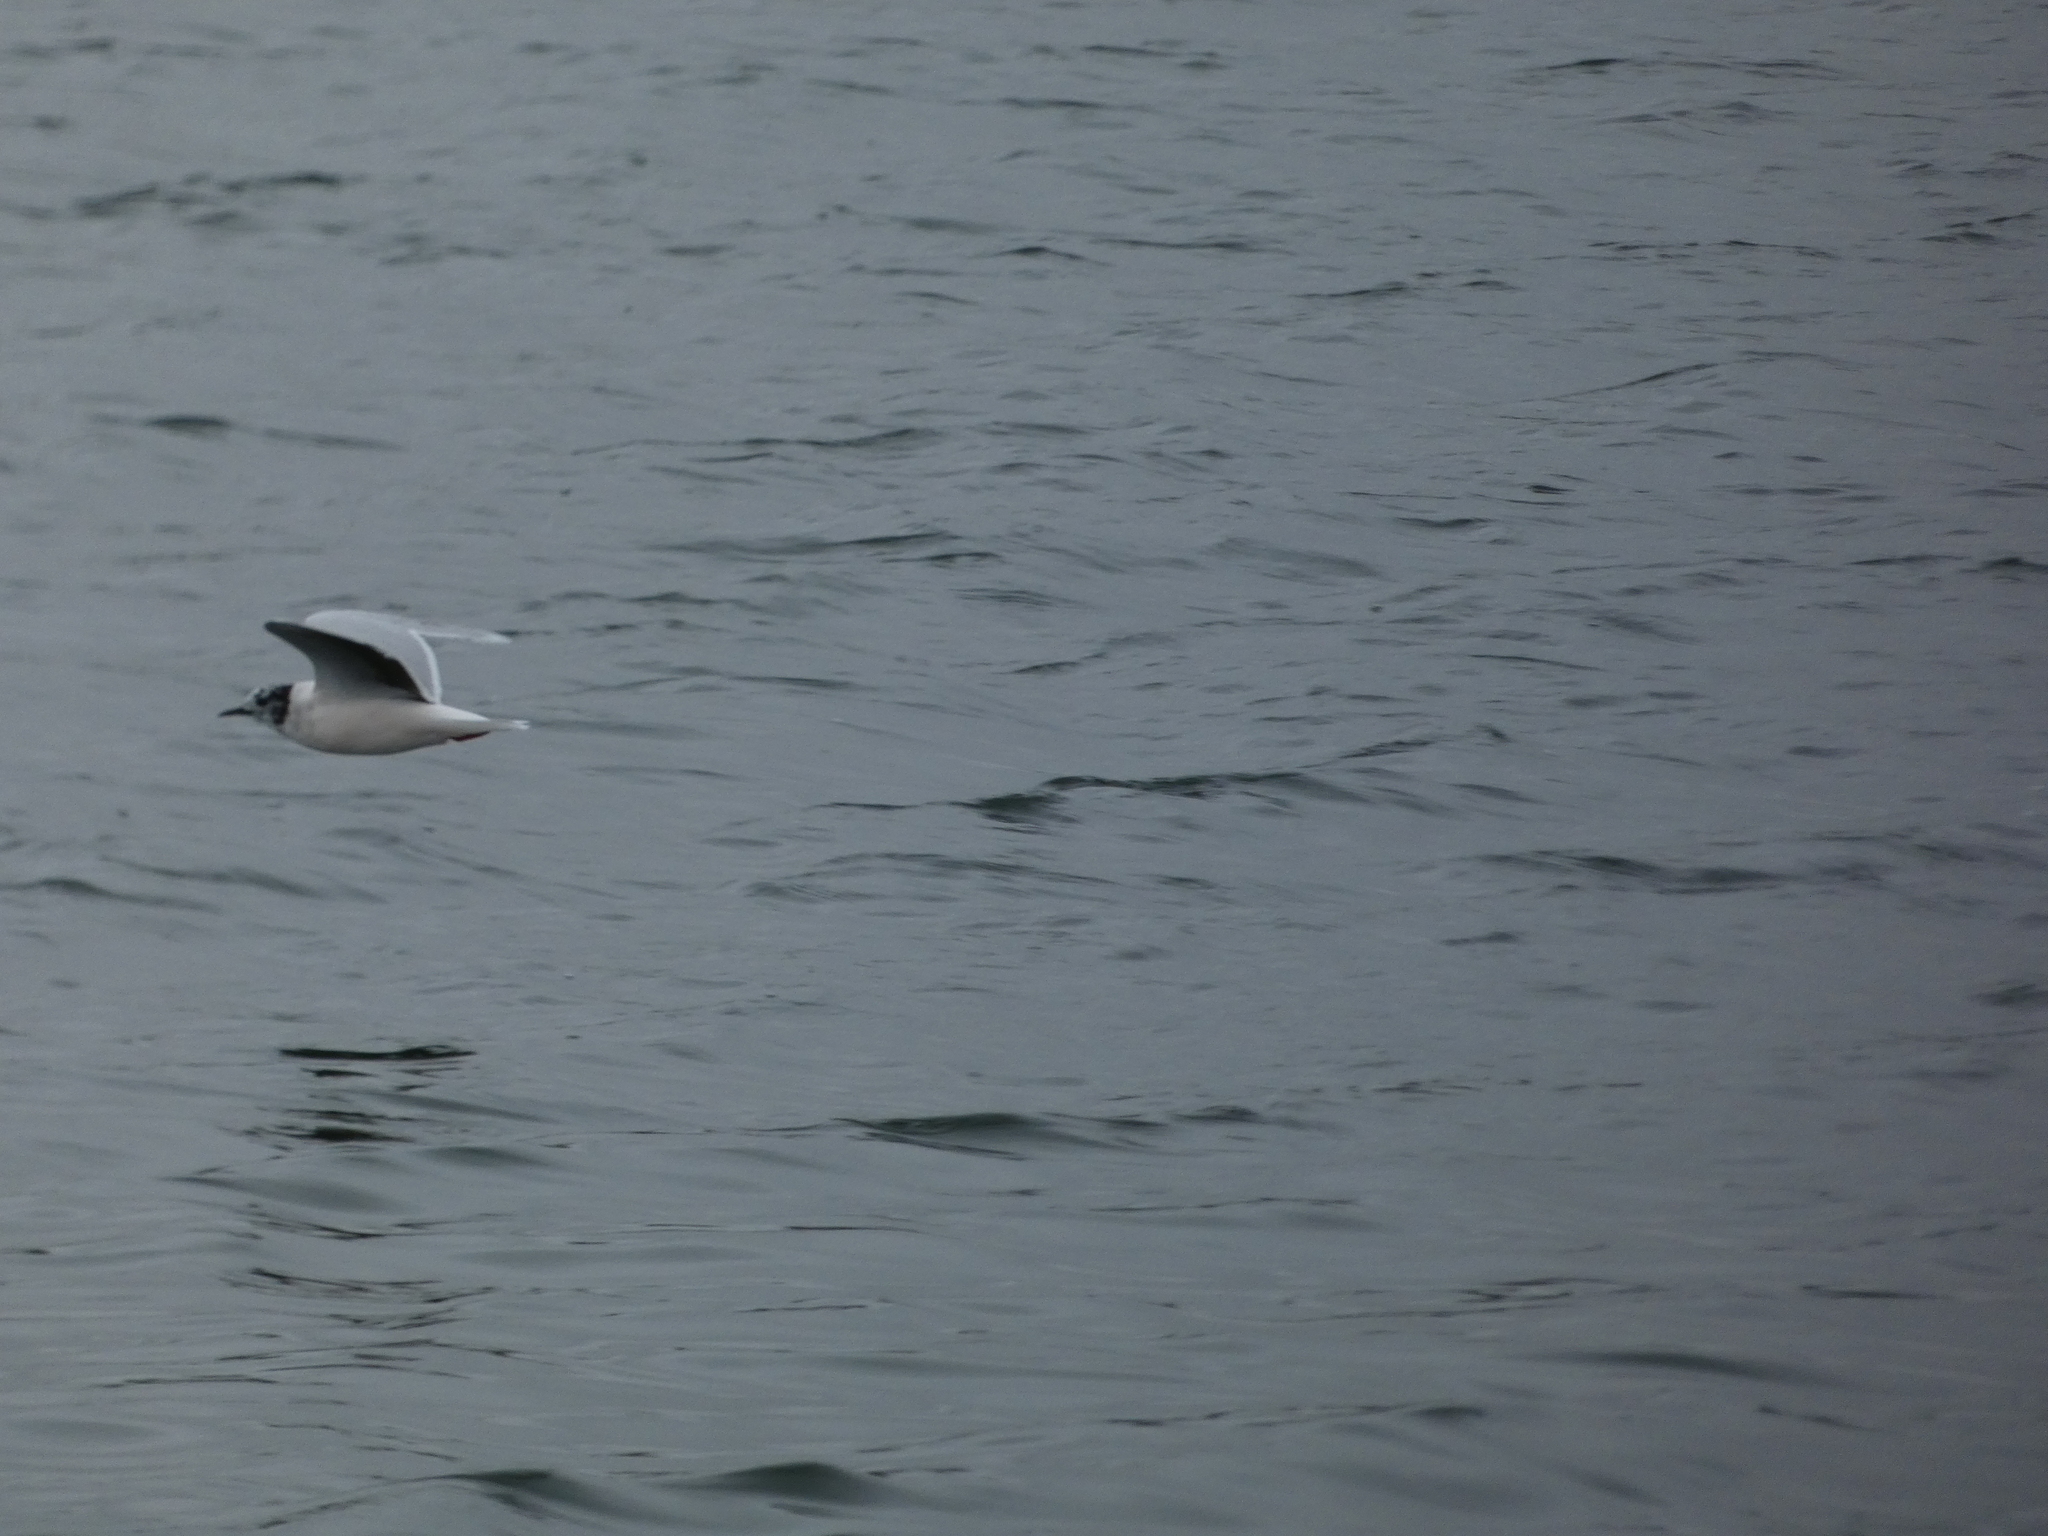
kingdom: Animalia
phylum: Chordata
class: Aves
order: Charadriiformes
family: Laridae
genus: Hydrocoloeus
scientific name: Hydrocoloeus minutus
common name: Little gull
